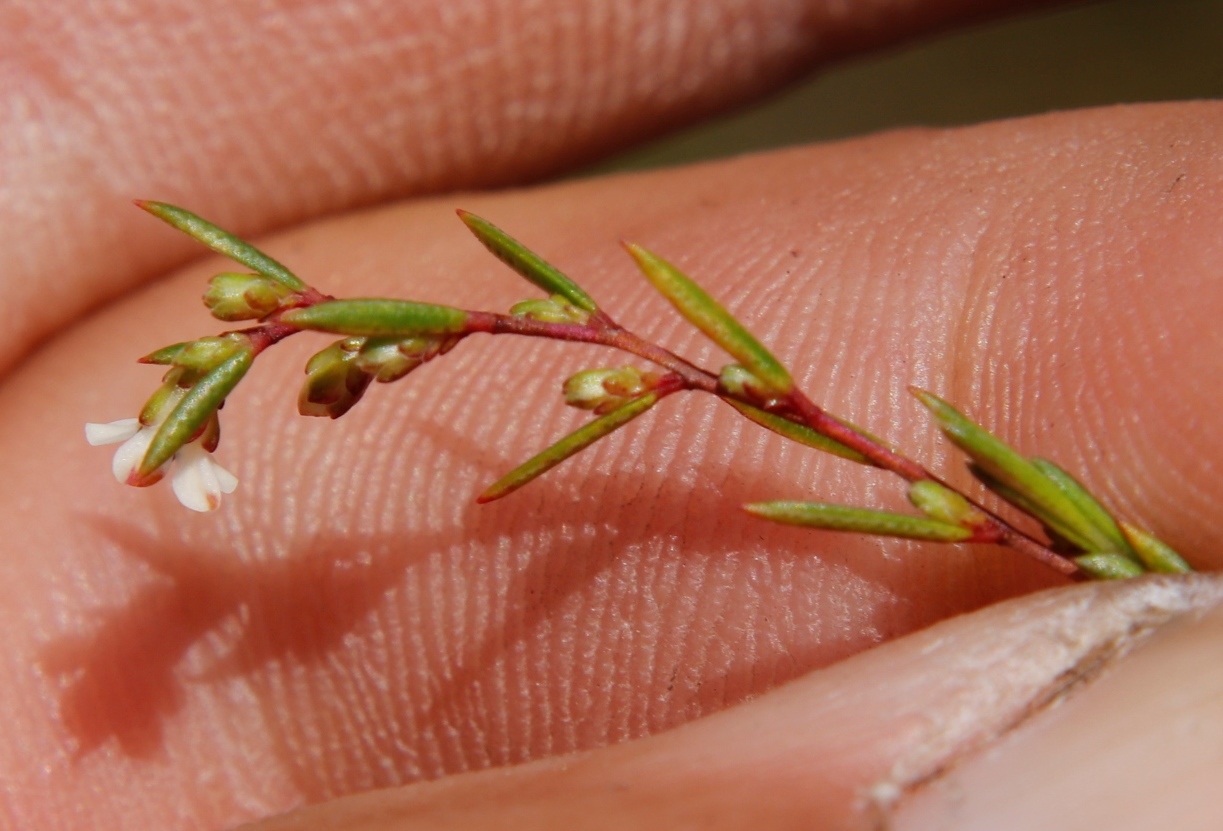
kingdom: Plantae
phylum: Tracheophyta
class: Magnoliopsida
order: Sapindales
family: Rutaceae
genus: Coleonema
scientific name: Coleonema juniperinum
